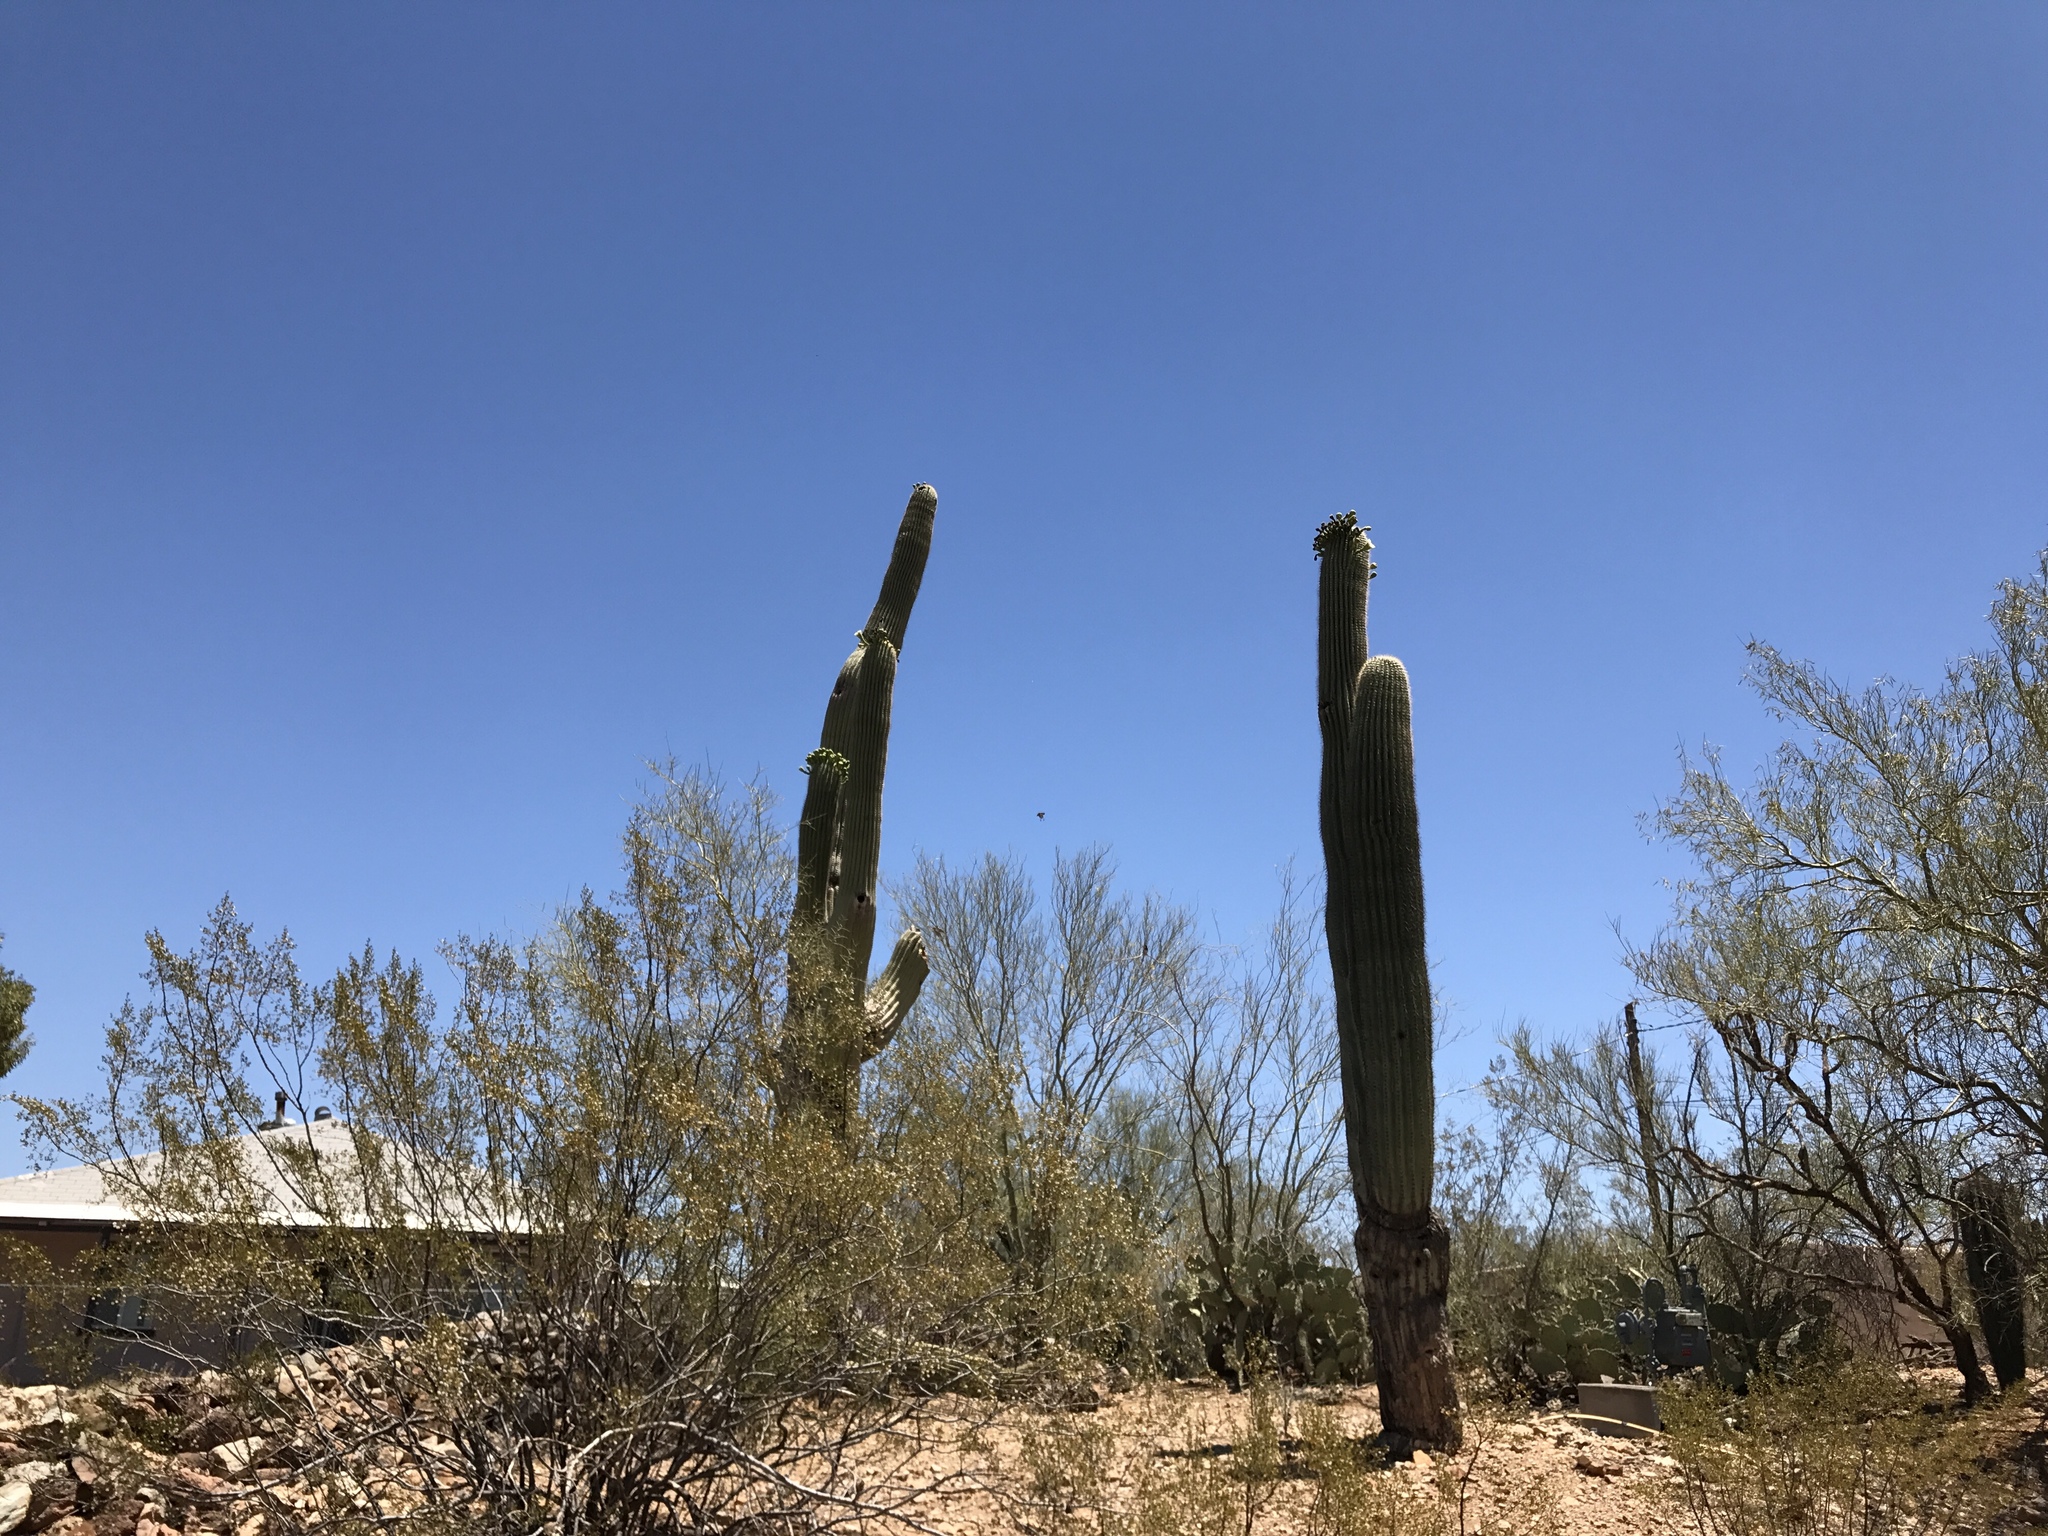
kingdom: Plantae
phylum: Tracheophyta
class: Magnoliopsida
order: Caryophyllales
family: Cactaceae
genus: Carnegiea
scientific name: Carnegiea gigantea
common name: Saguaro
